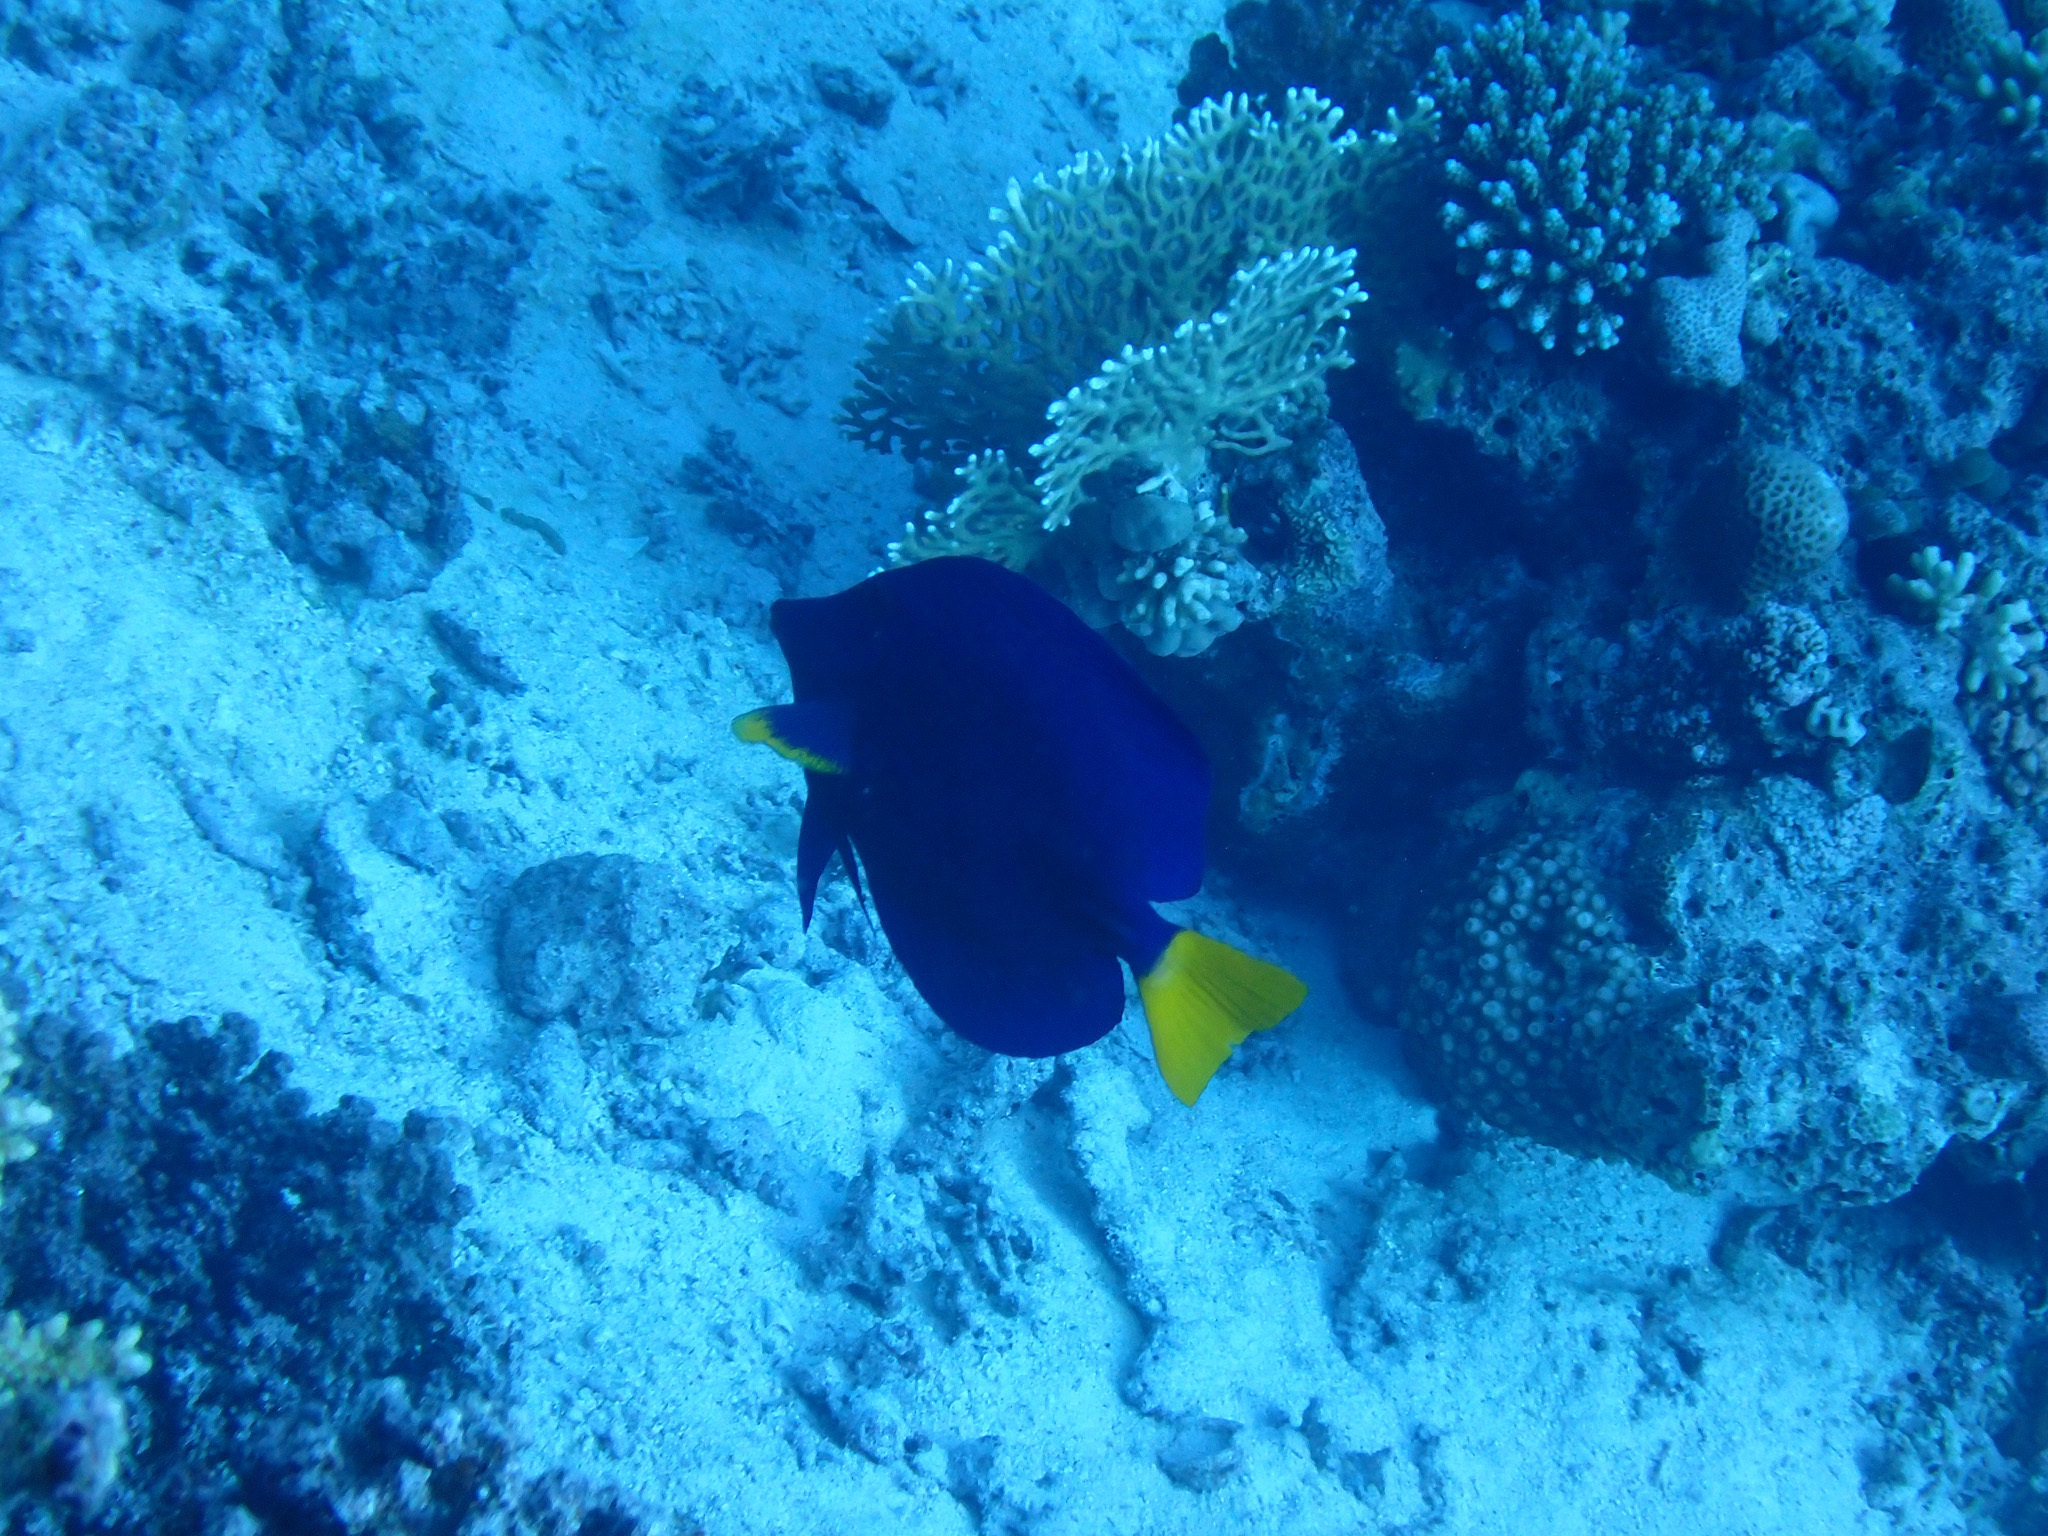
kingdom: Animalia
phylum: Chordata
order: Perciformes
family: Acanthuridae
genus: Zebrasoma
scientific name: Zebrasoma xanthurum
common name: Purple tang
